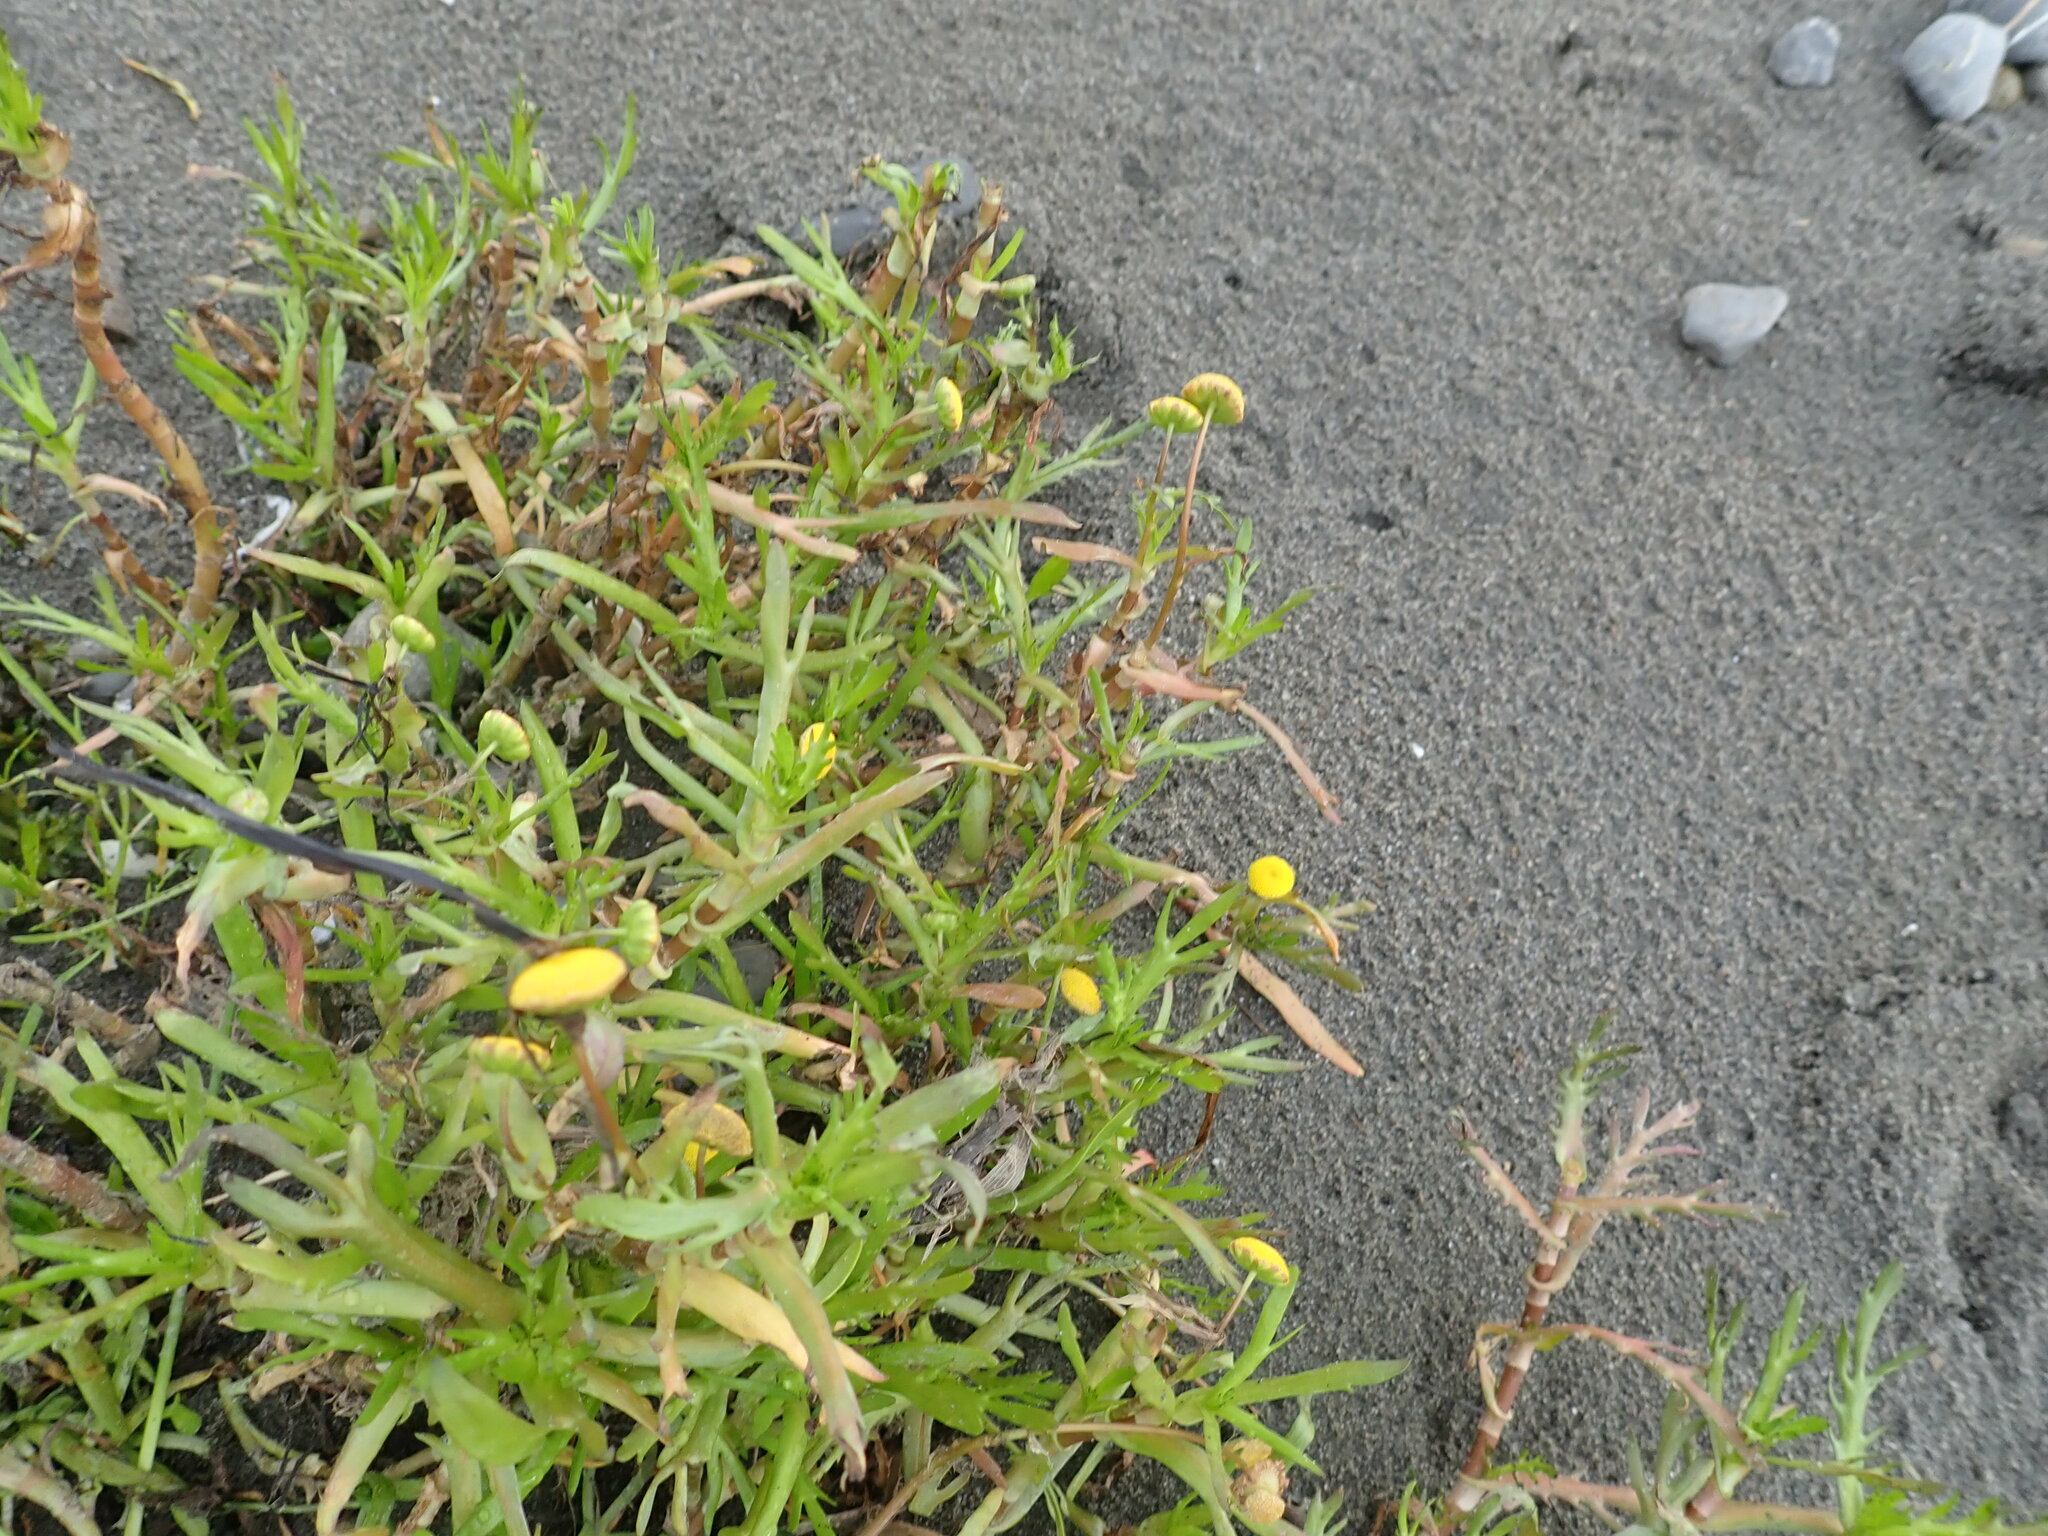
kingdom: Plantae
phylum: Tracheophyta
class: Magnoliopsida
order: Asterales
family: Asteraceae
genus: Cotula
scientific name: Cotula coronopifolia
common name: Buttonweed
